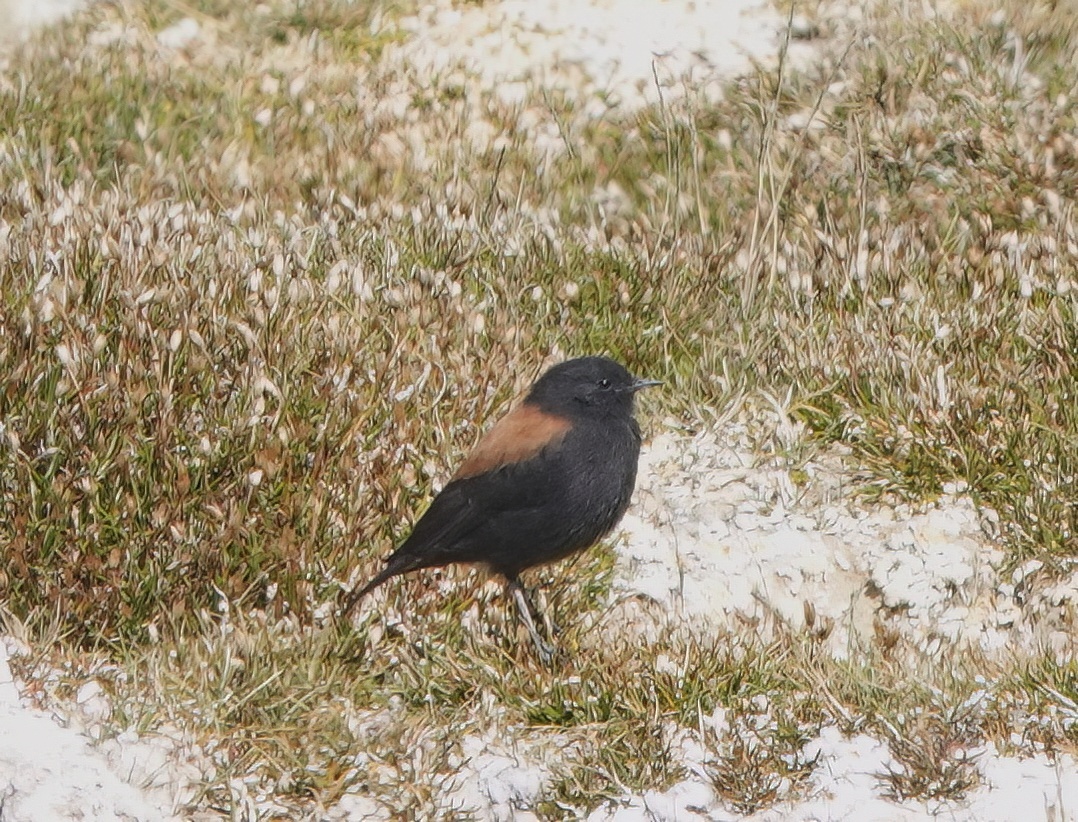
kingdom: Animalia
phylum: Chordata
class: Aves
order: Passeriformes
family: Tyrannidae
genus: Lessonia
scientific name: Lessonia oreas
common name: Andean negrito
